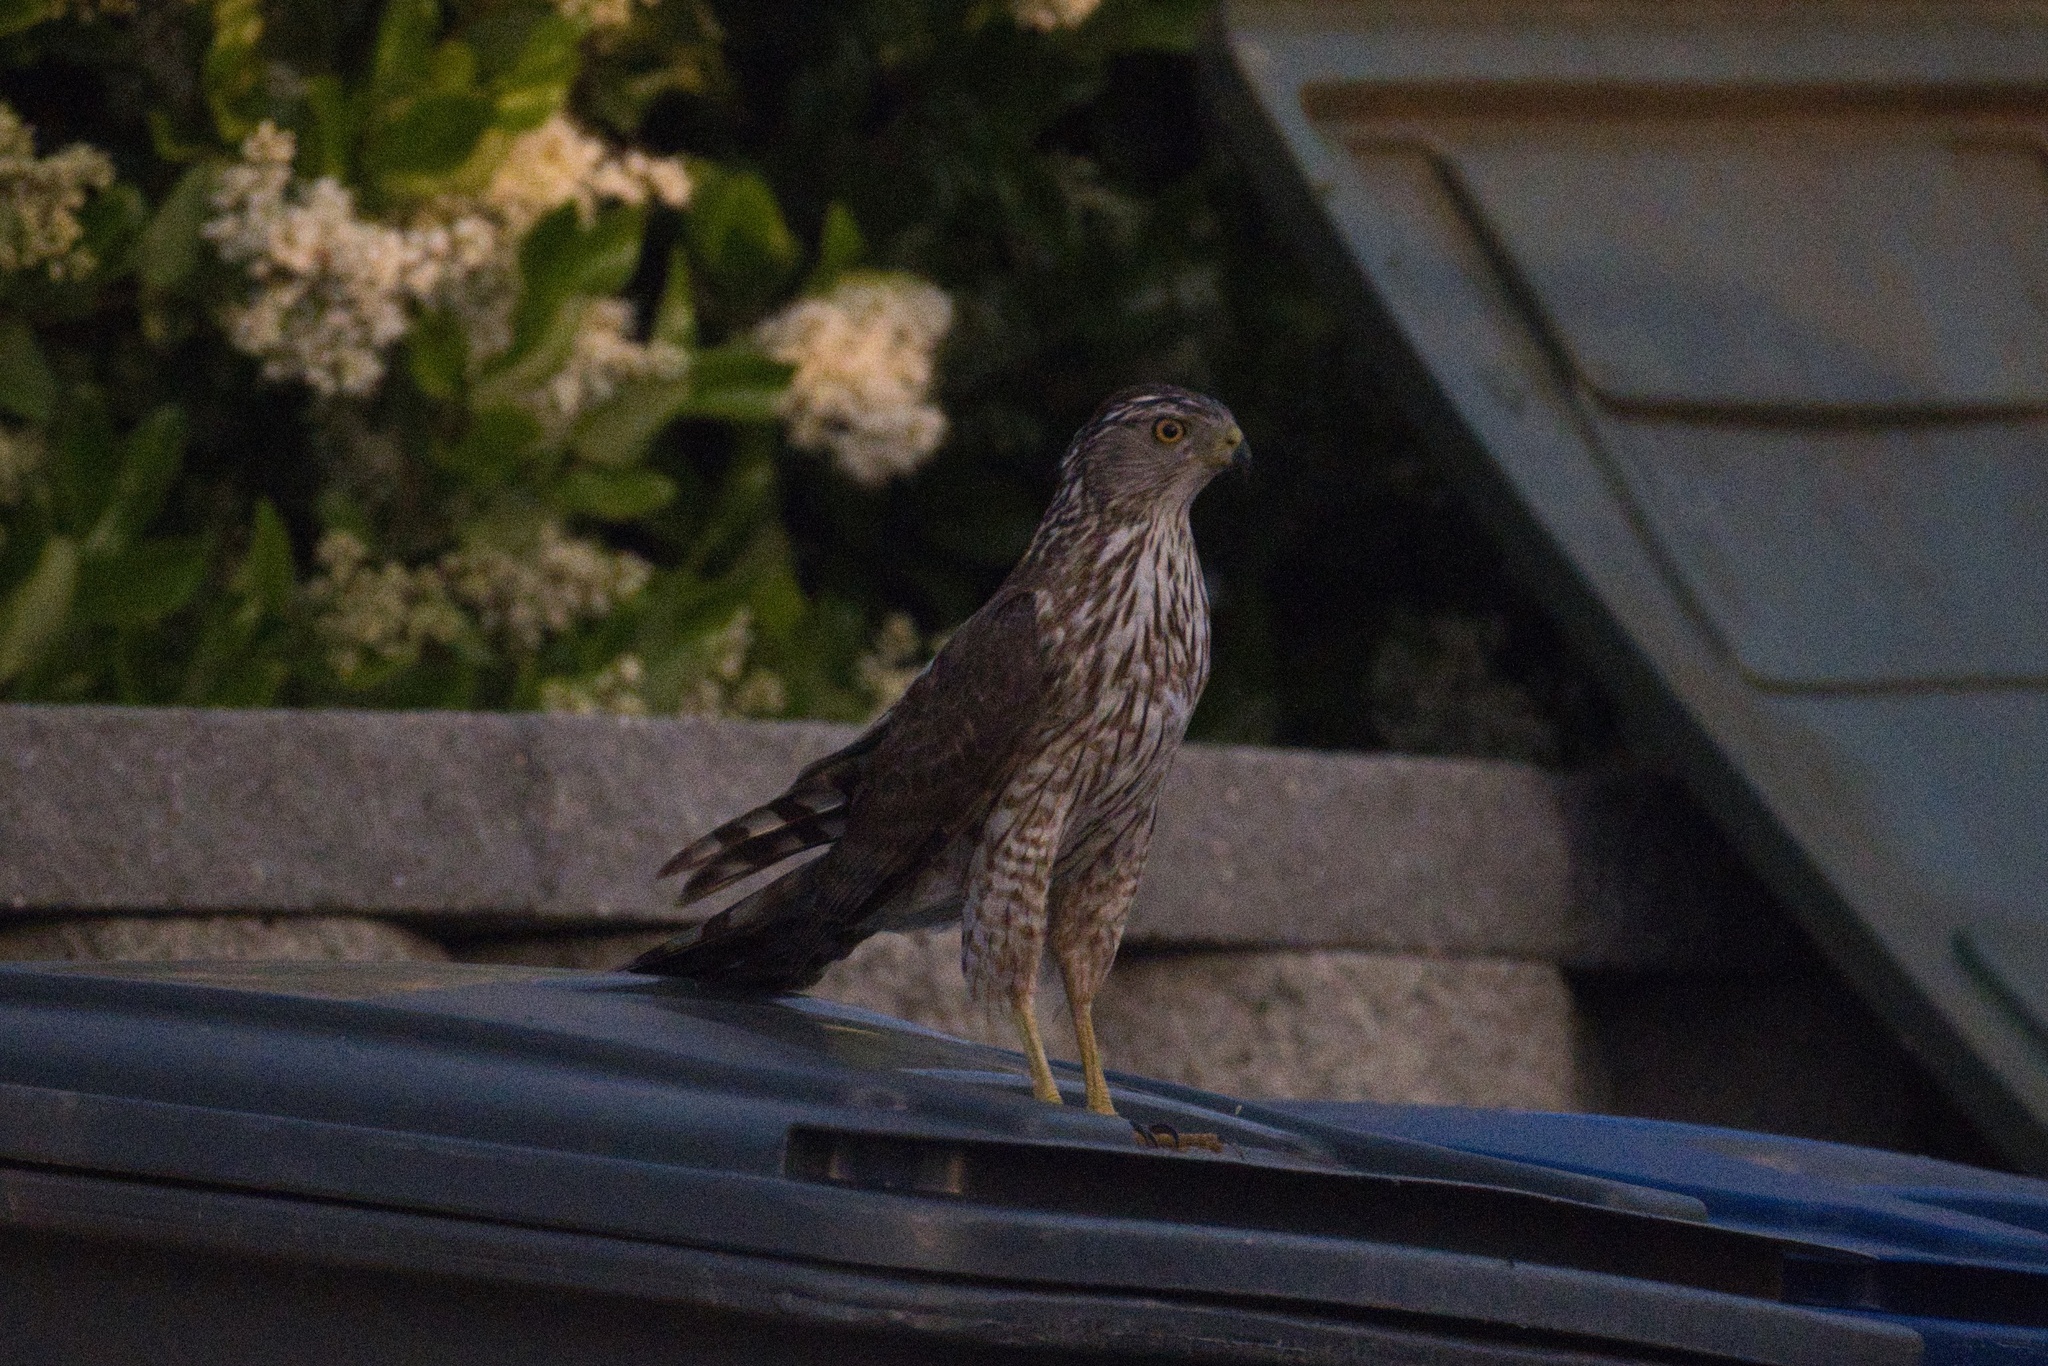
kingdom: Animalia
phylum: Chordata
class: Aves
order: Accipitriformes
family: Accipitridae
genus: Accipiter
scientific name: Accipiter cooperii
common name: Cooper's hawk
